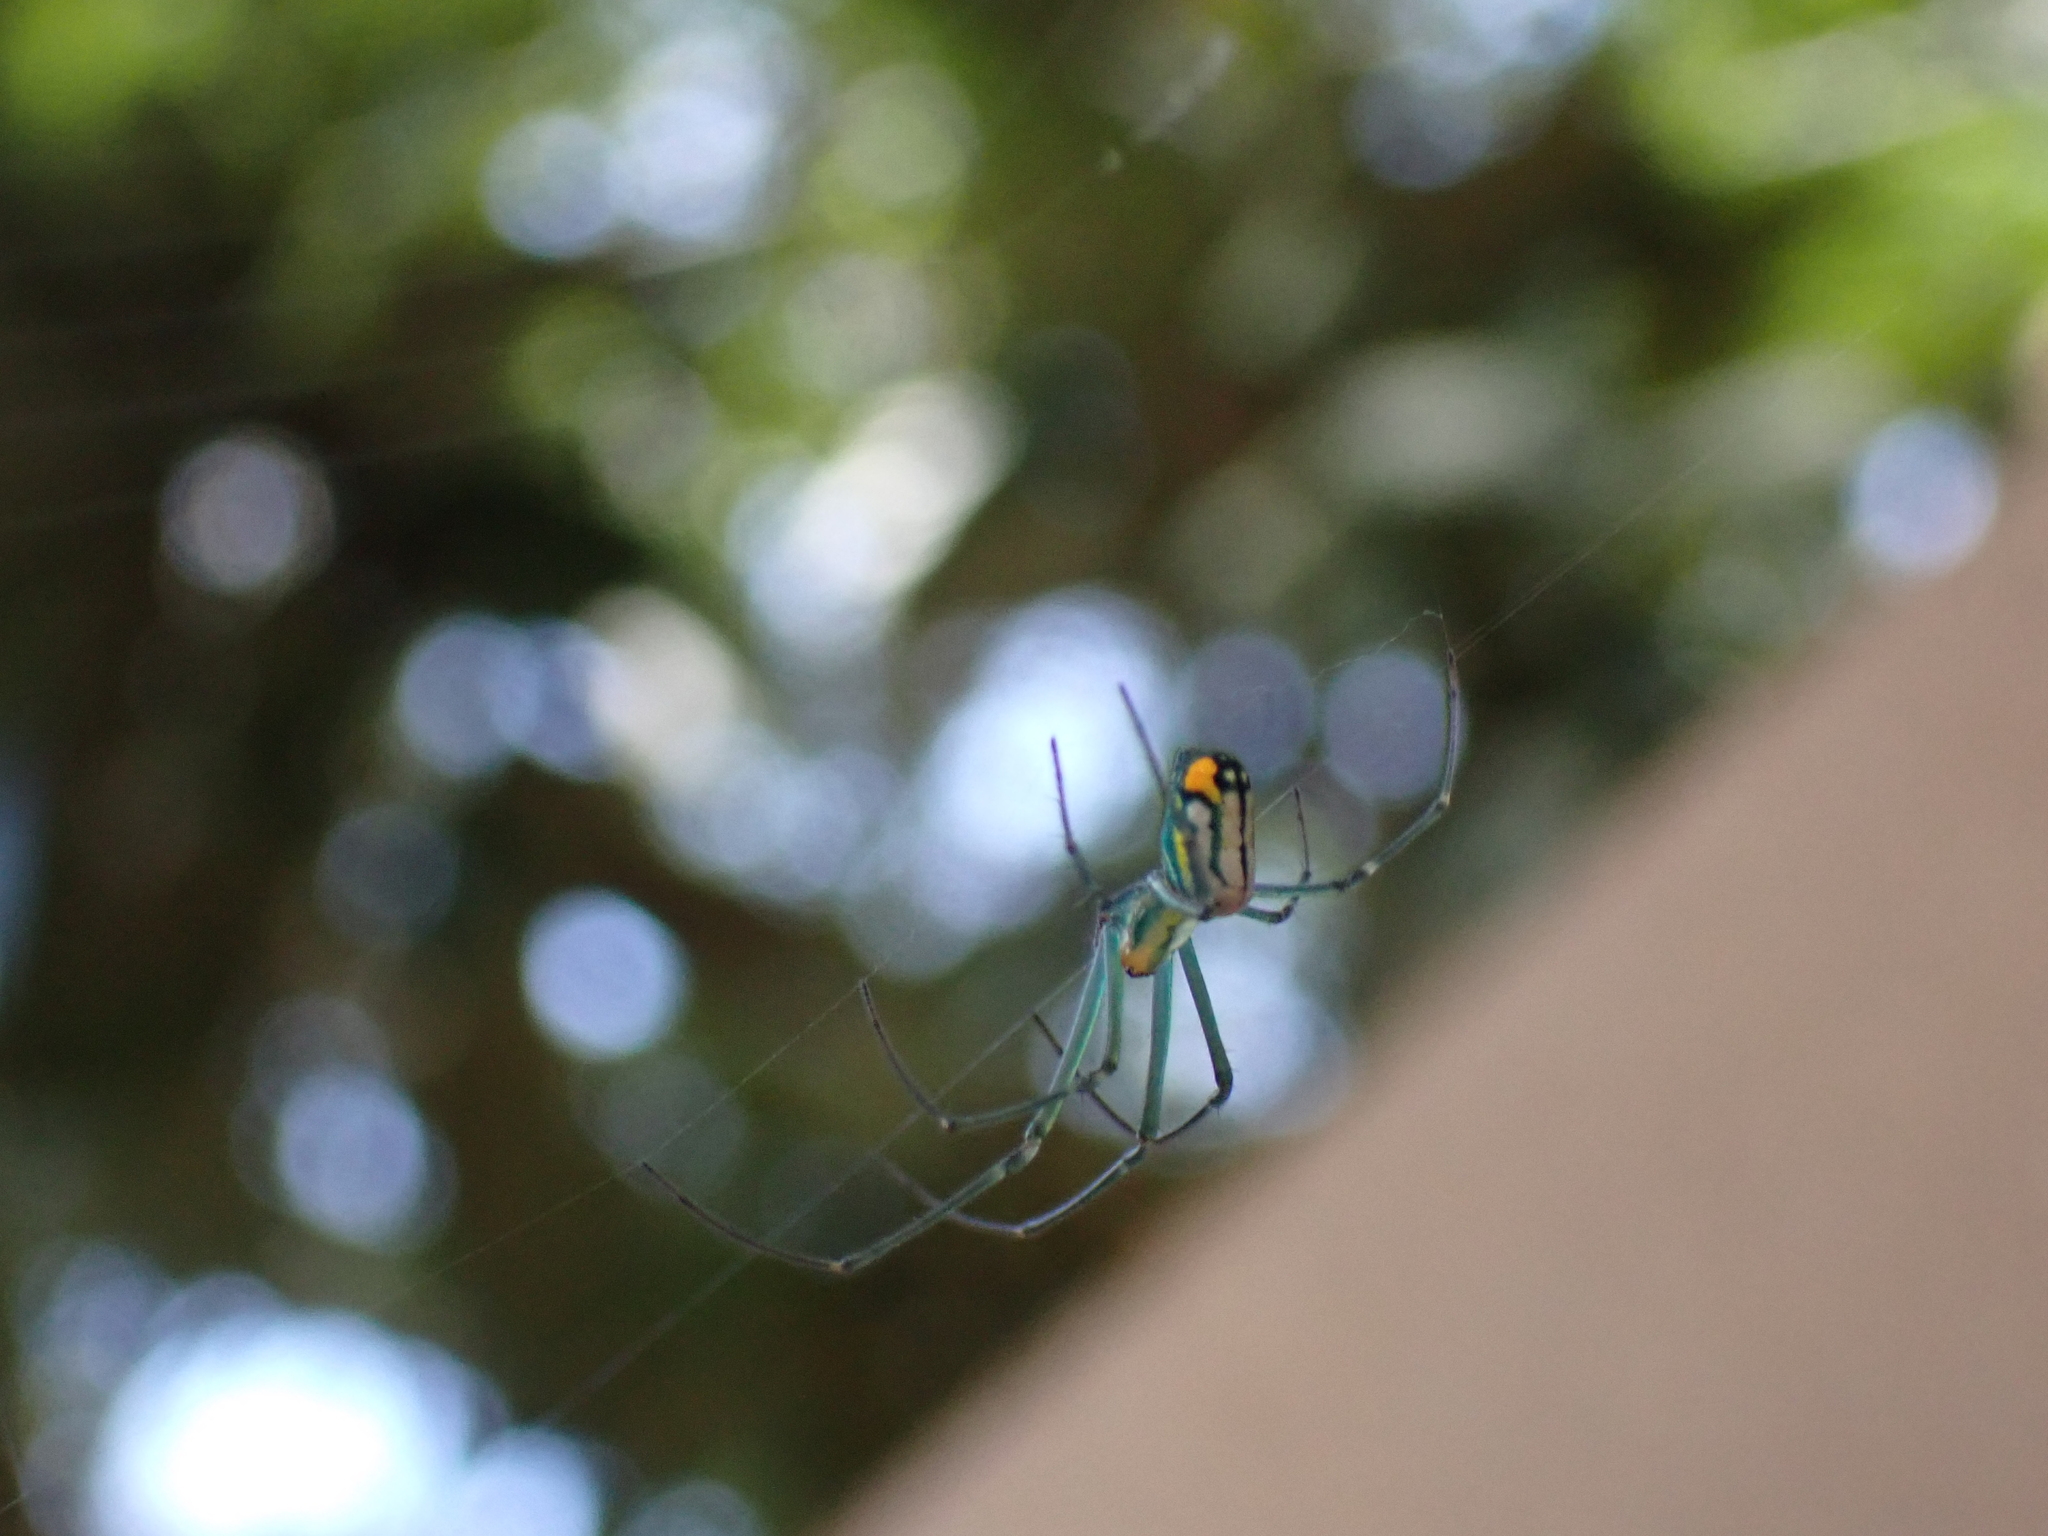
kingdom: Animalia
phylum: Arthropoda
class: Arachnida
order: Araneae
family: Tetragnathidae
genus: Leucauge
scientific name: Leucauge argyrobapta
